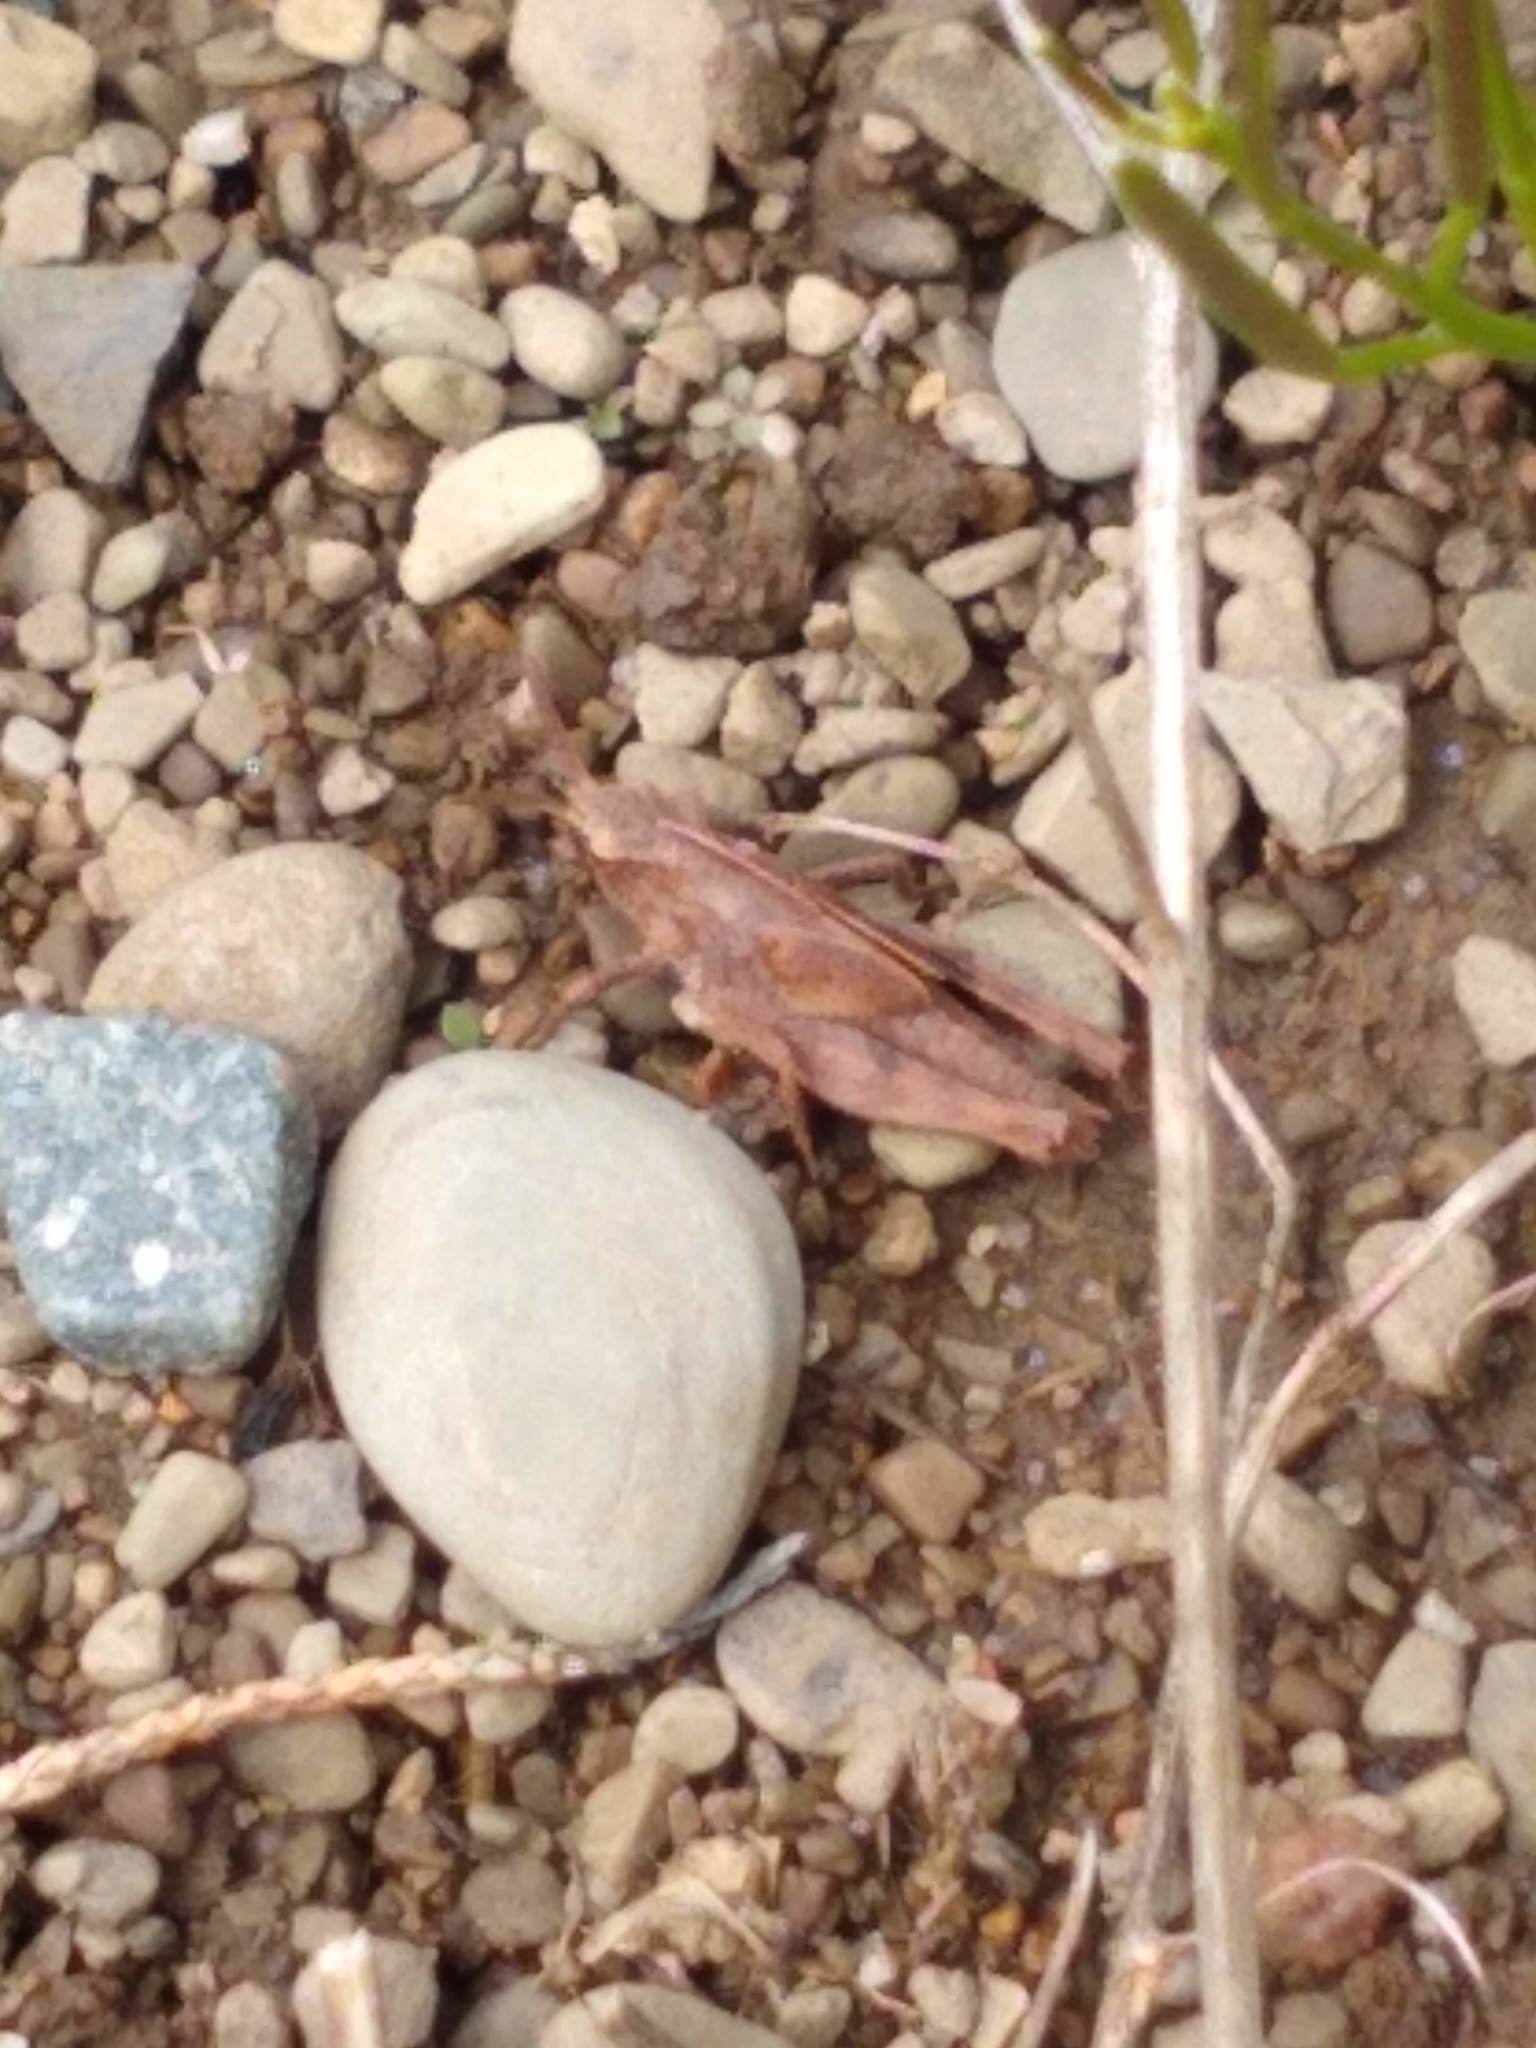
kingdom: Animalia
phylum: Arthropoda
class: Insecta
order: Orthoptera
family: Acrididae
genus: Chortophaga
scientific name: Chortophaga viridifasciata
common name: Green-striped grasshopper
